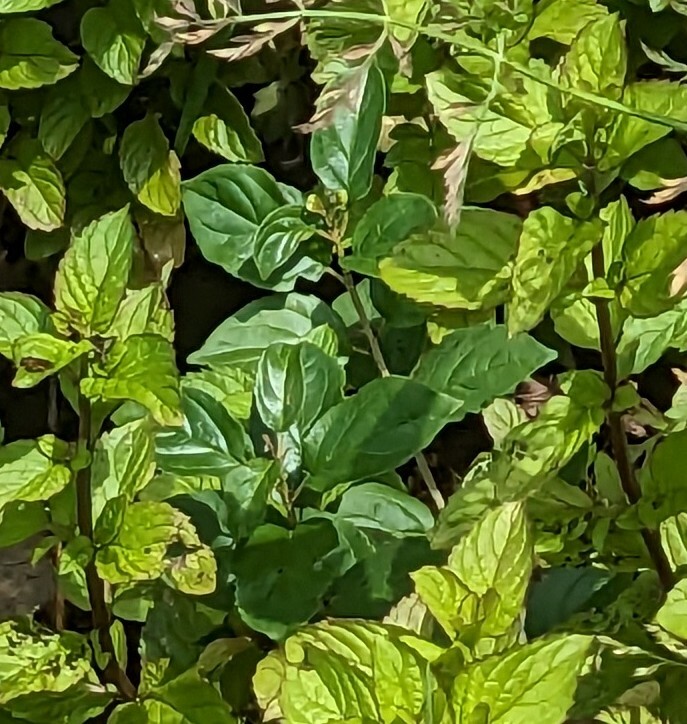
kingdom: Plantae
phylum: Tracheophyta
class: Magnoliopsida
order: Rosales
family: Rhamnaceae
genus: Rhamnus
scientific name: Rhamnus cathartica
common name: Common buckthorn
